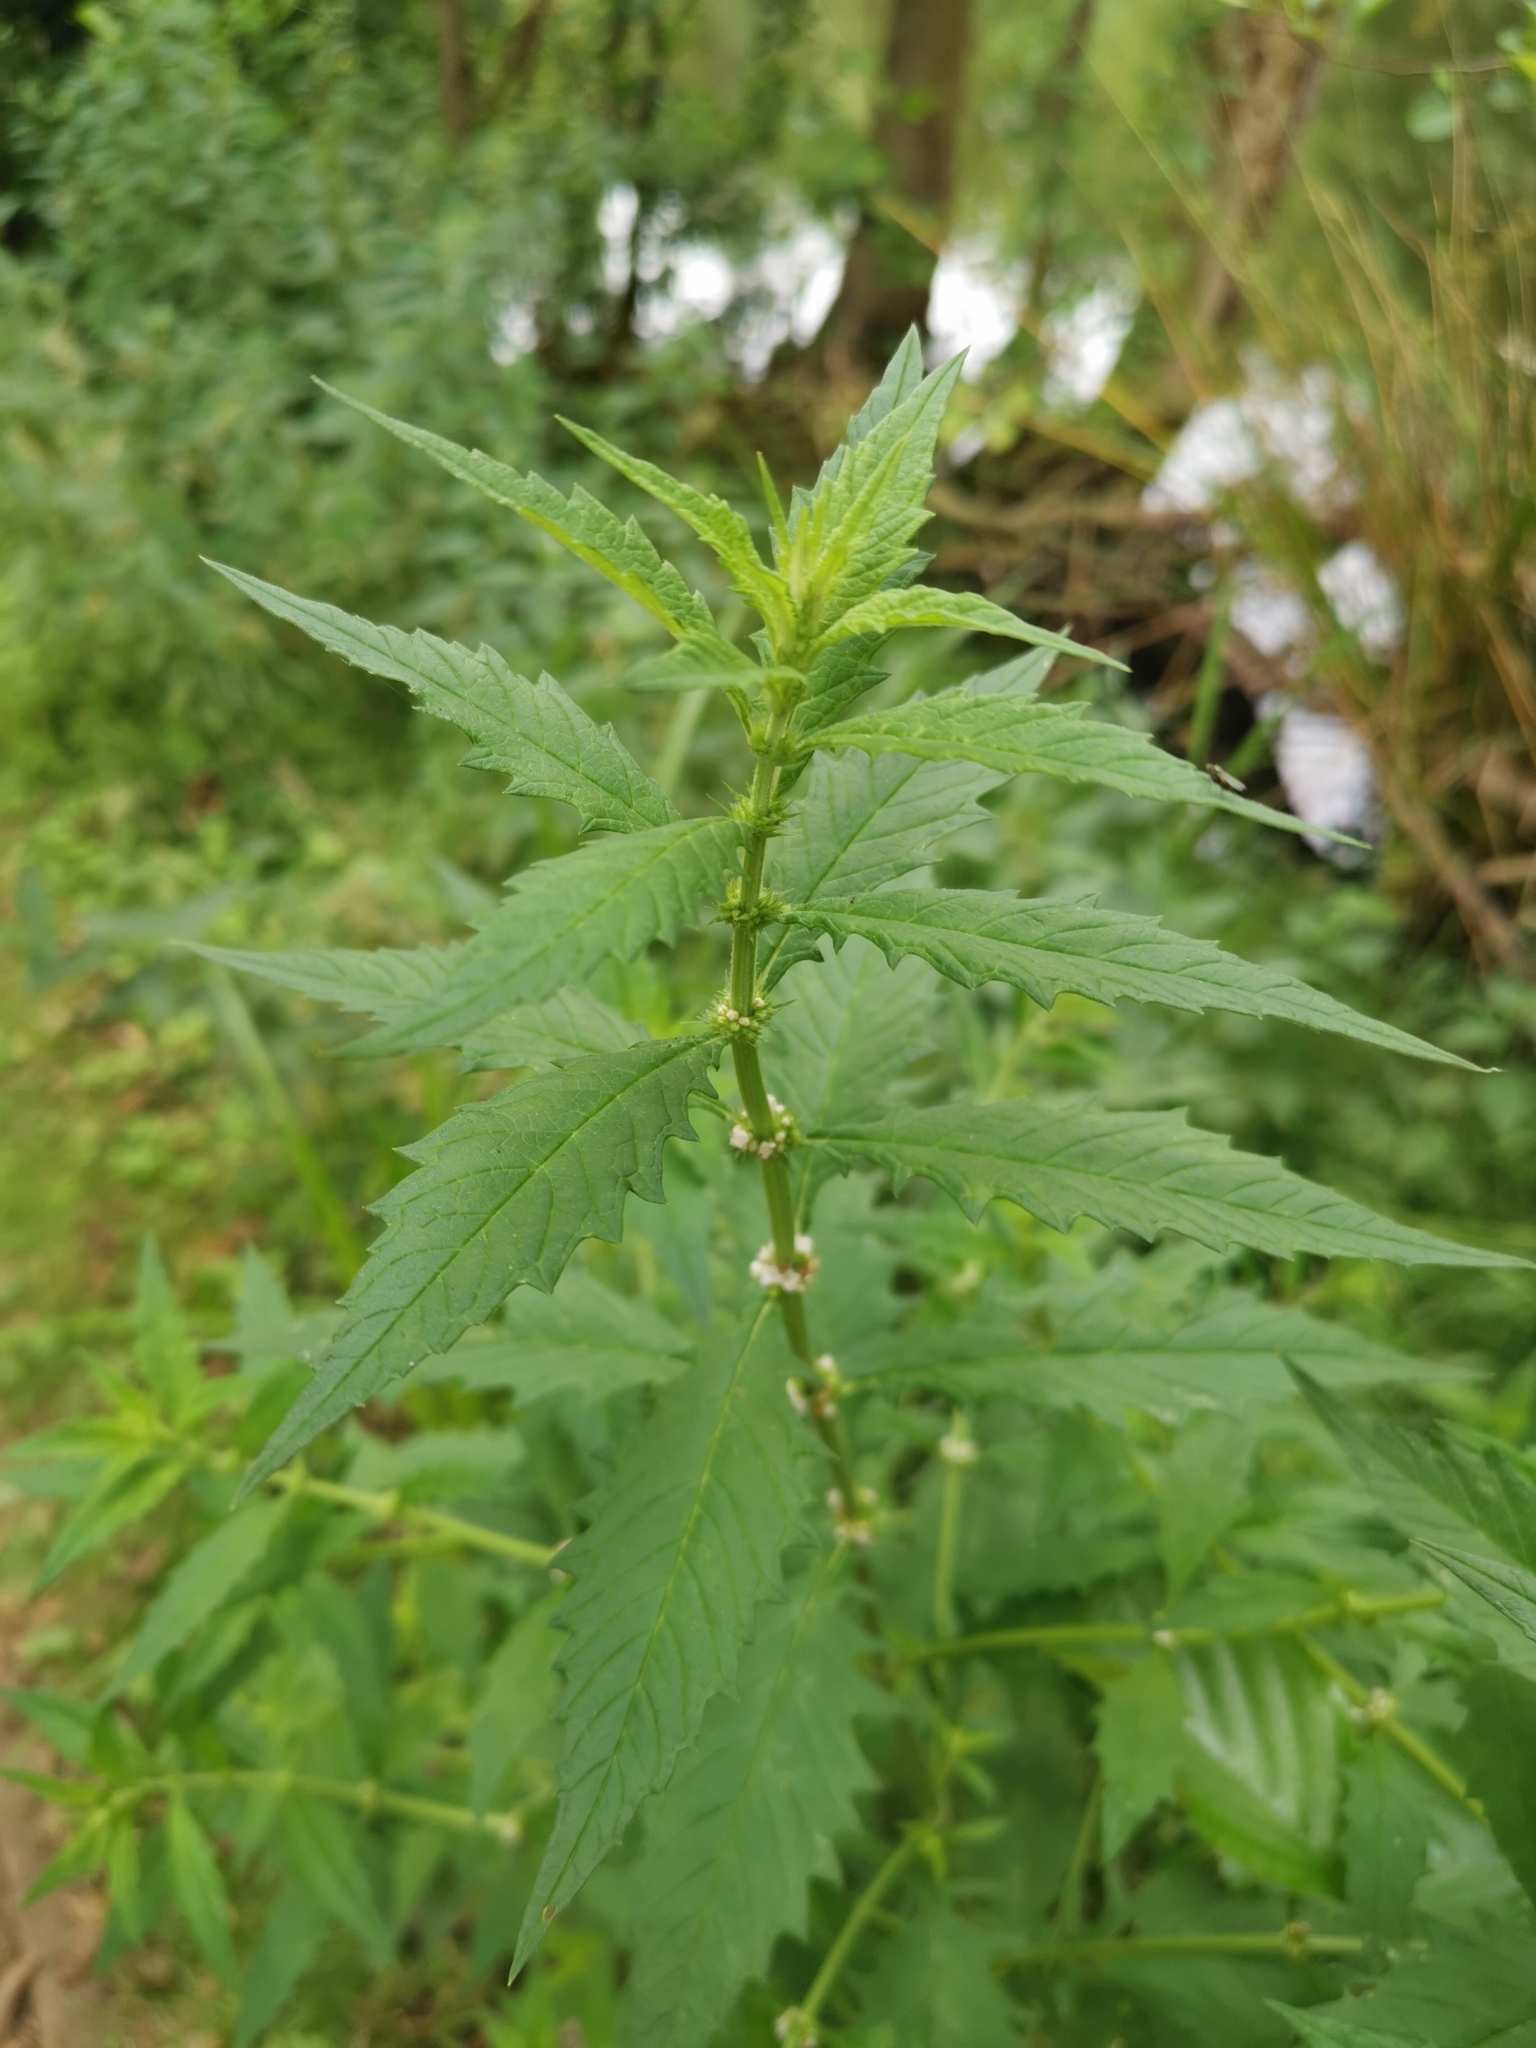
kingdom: Plantae
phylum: Tracheophyta
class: Magnoliopsida
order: Lamiales
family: Lamiaceae
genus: Lycopus
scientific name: Lycopus europaeus
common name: European bugleweed
